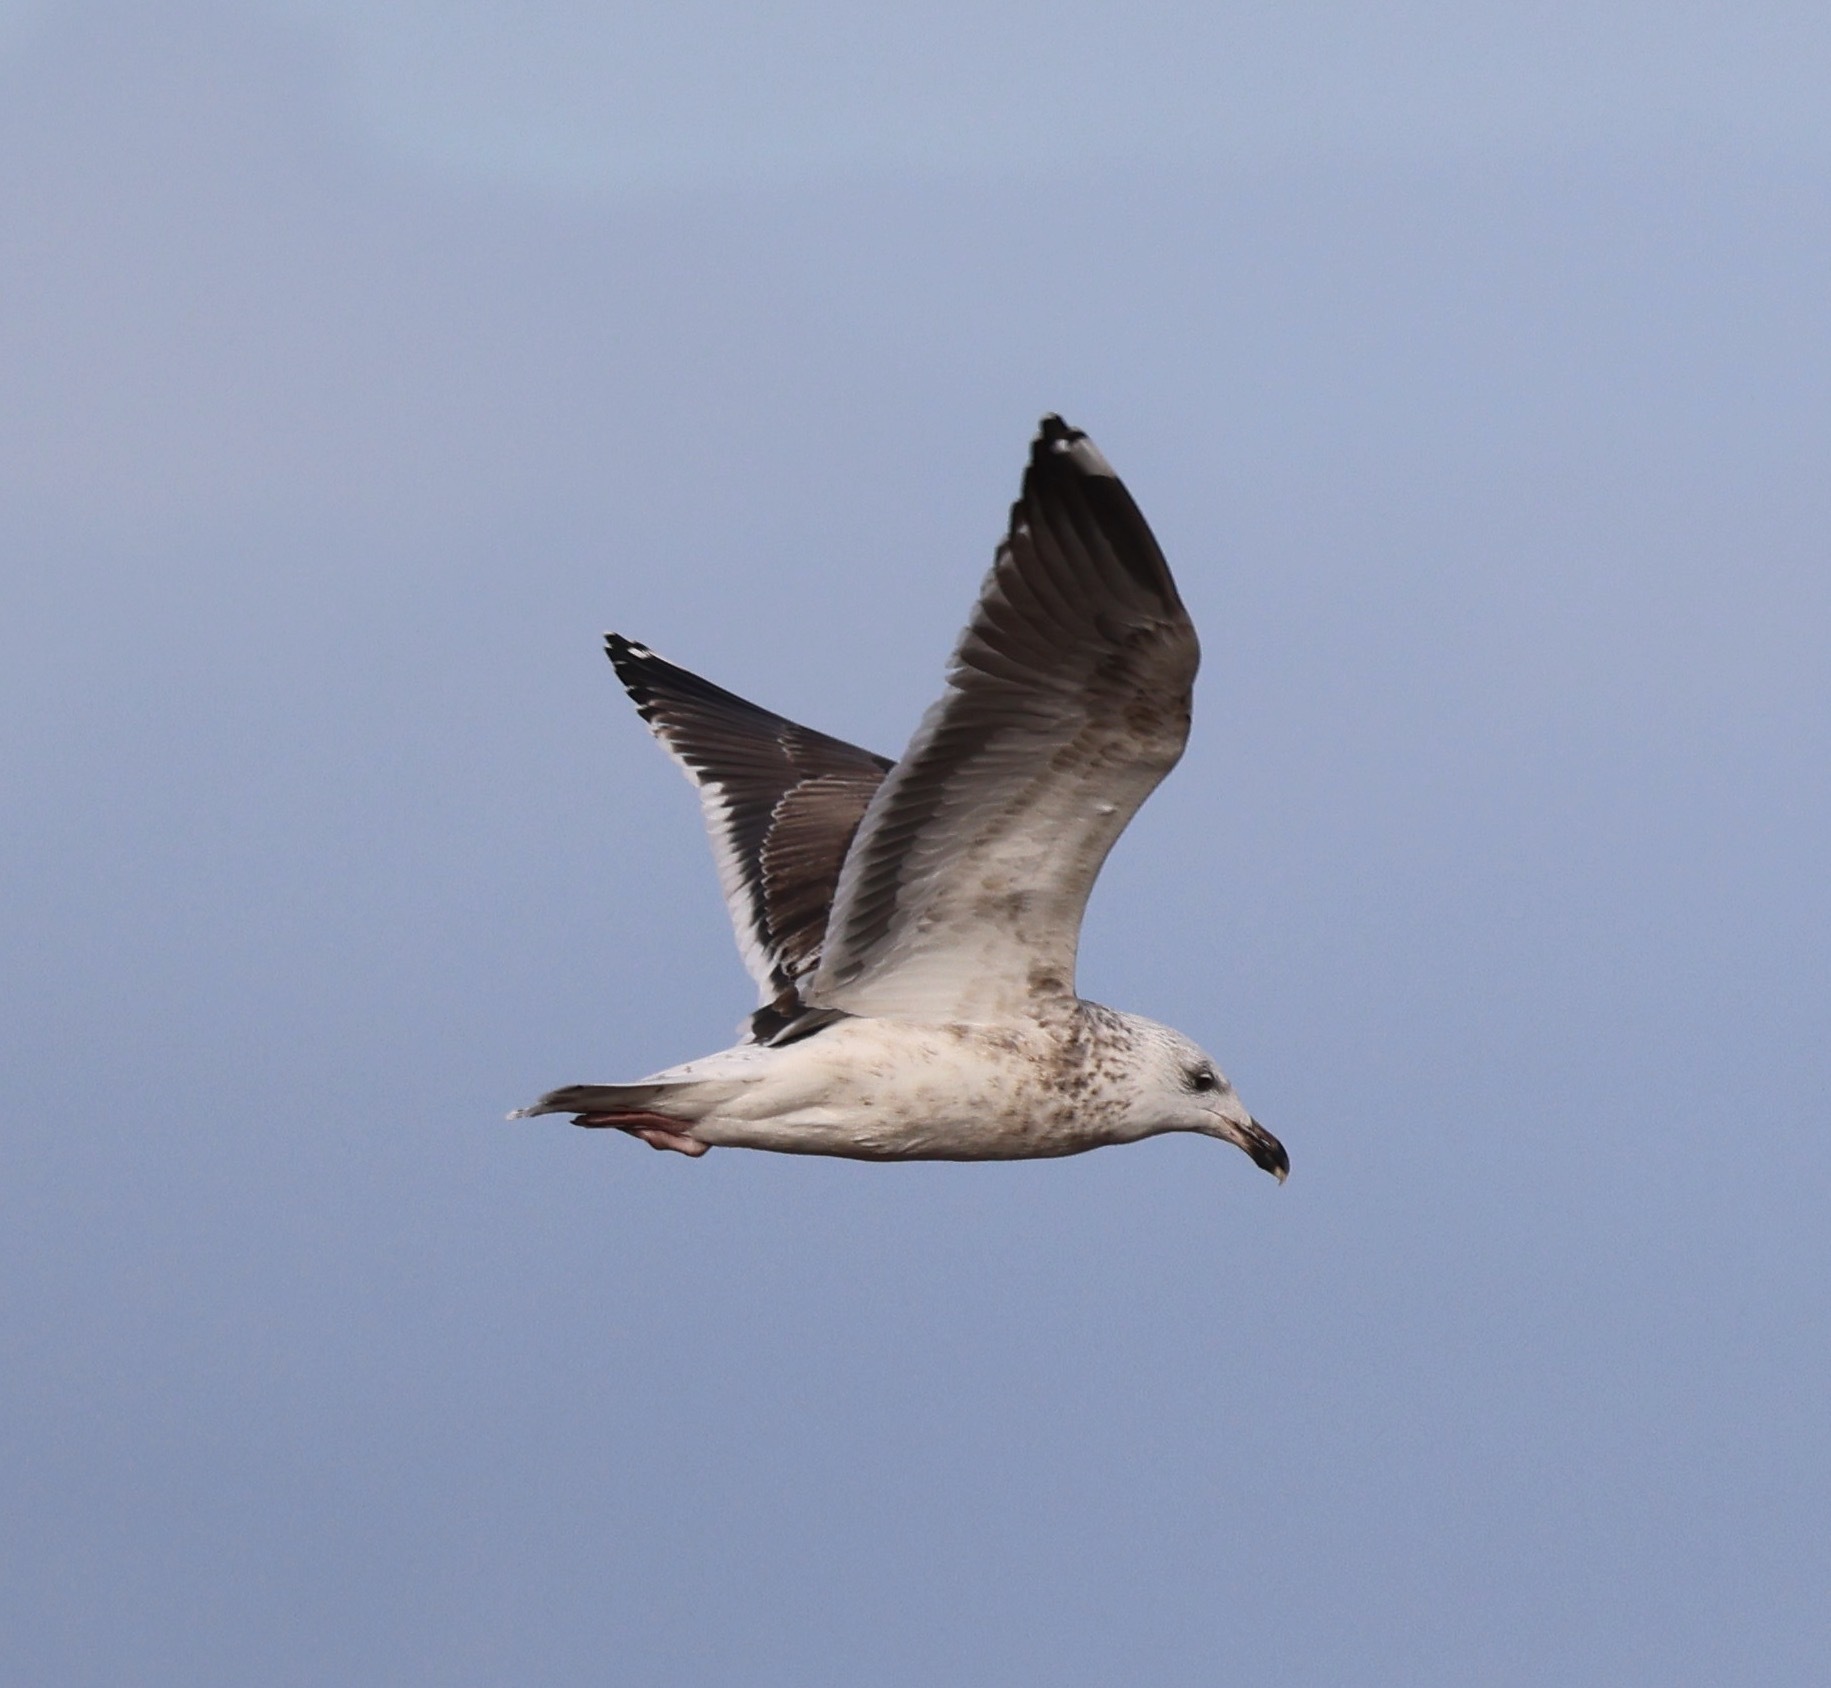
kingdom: Animalia
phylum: Chordata
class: Aves
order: Charadriiformes
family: Laridae
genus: Larus
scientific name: Larus marinus
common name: Great black-backed gull
